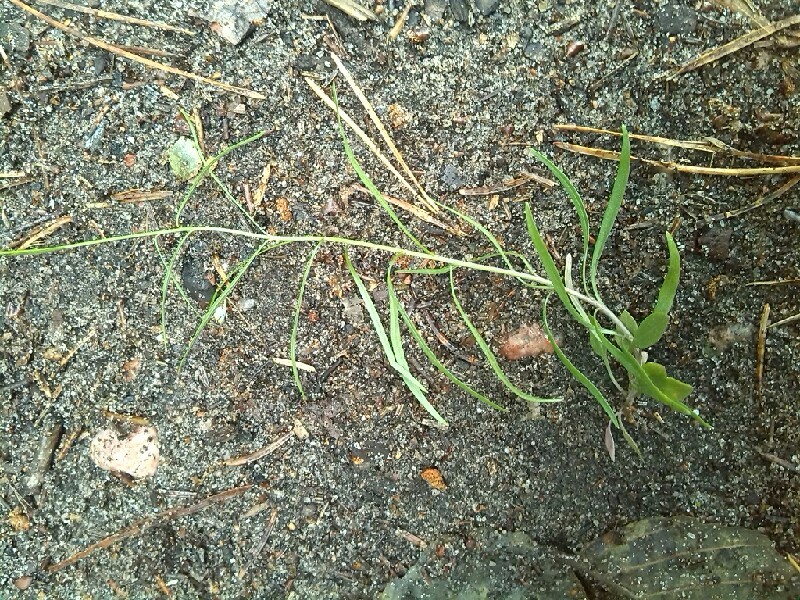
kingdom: Plantae
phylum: Tracheophyta
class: Magnoliopsida
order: Asterales
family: Campanulaceae
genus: Campanula
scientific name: Campanula rotundifolia
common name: Harebell
